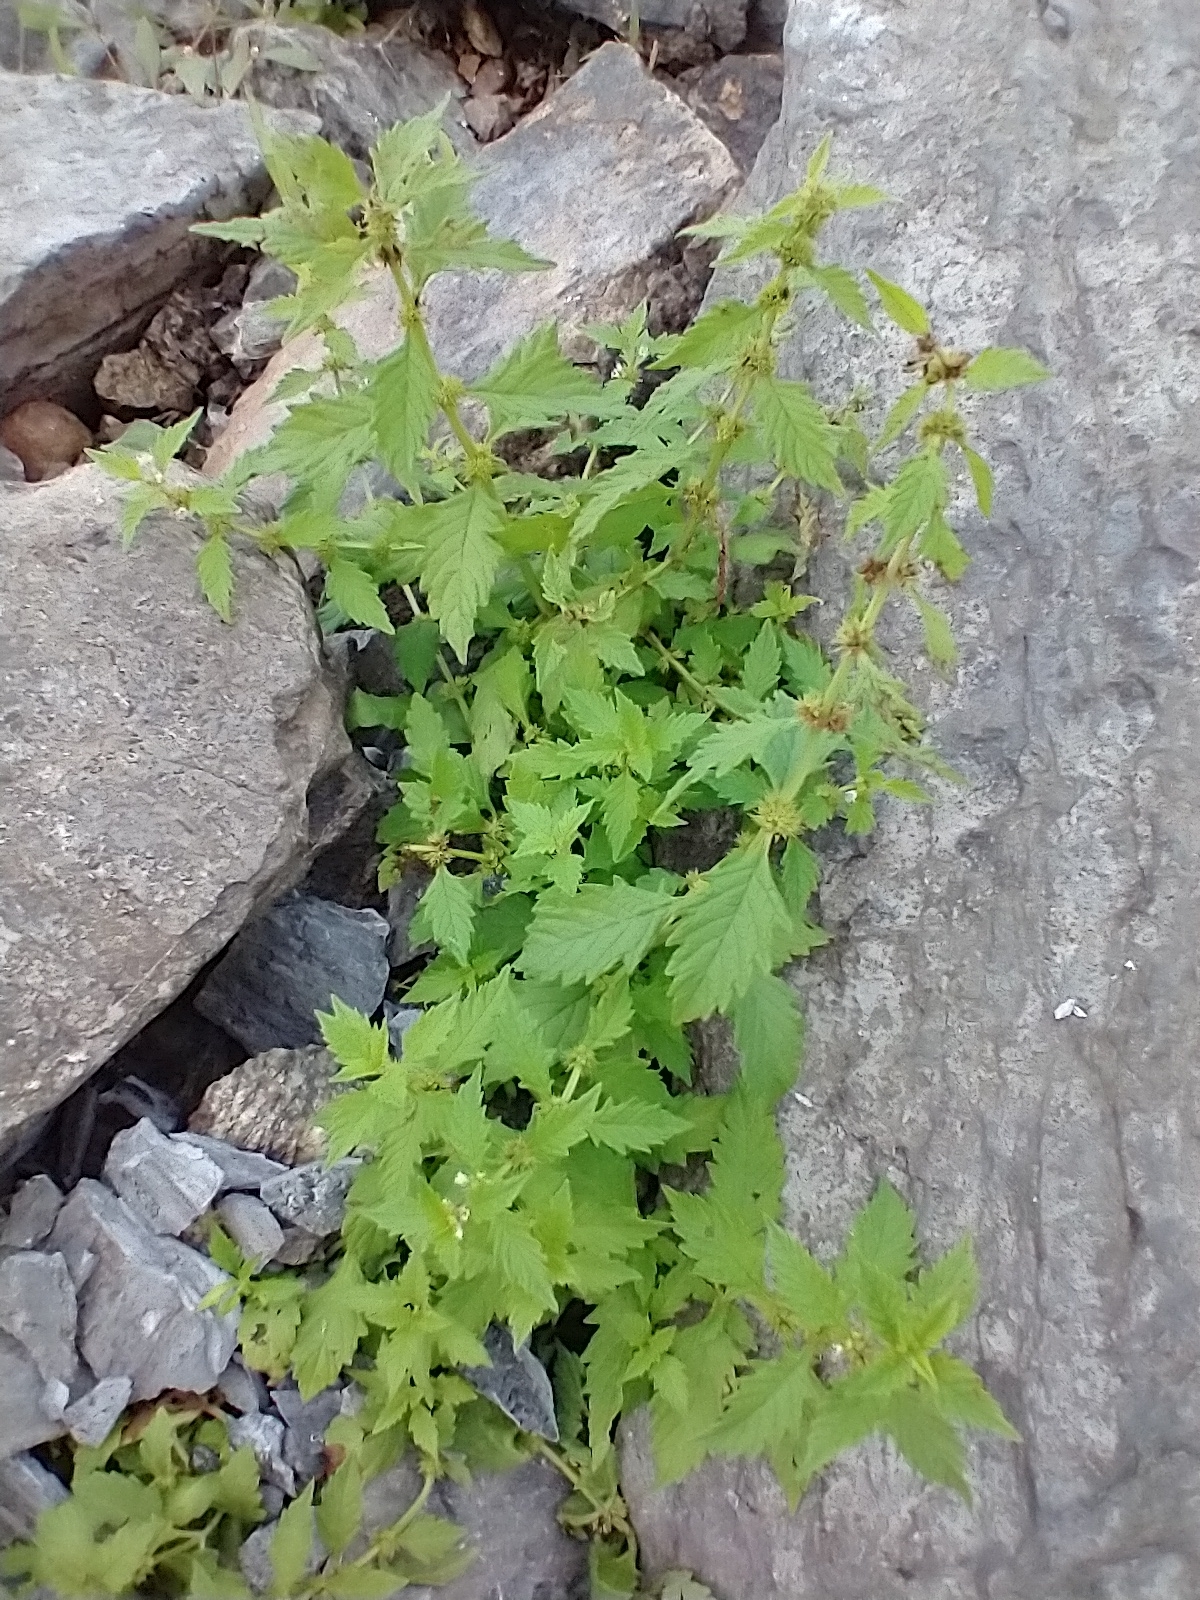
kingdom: Plantae
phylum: Tracheophyta
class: Magnoliopsida
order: Lamiales
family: Lamiaceae
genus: Lycopus
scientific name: Lycopus europaeus
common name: European bugleweed
